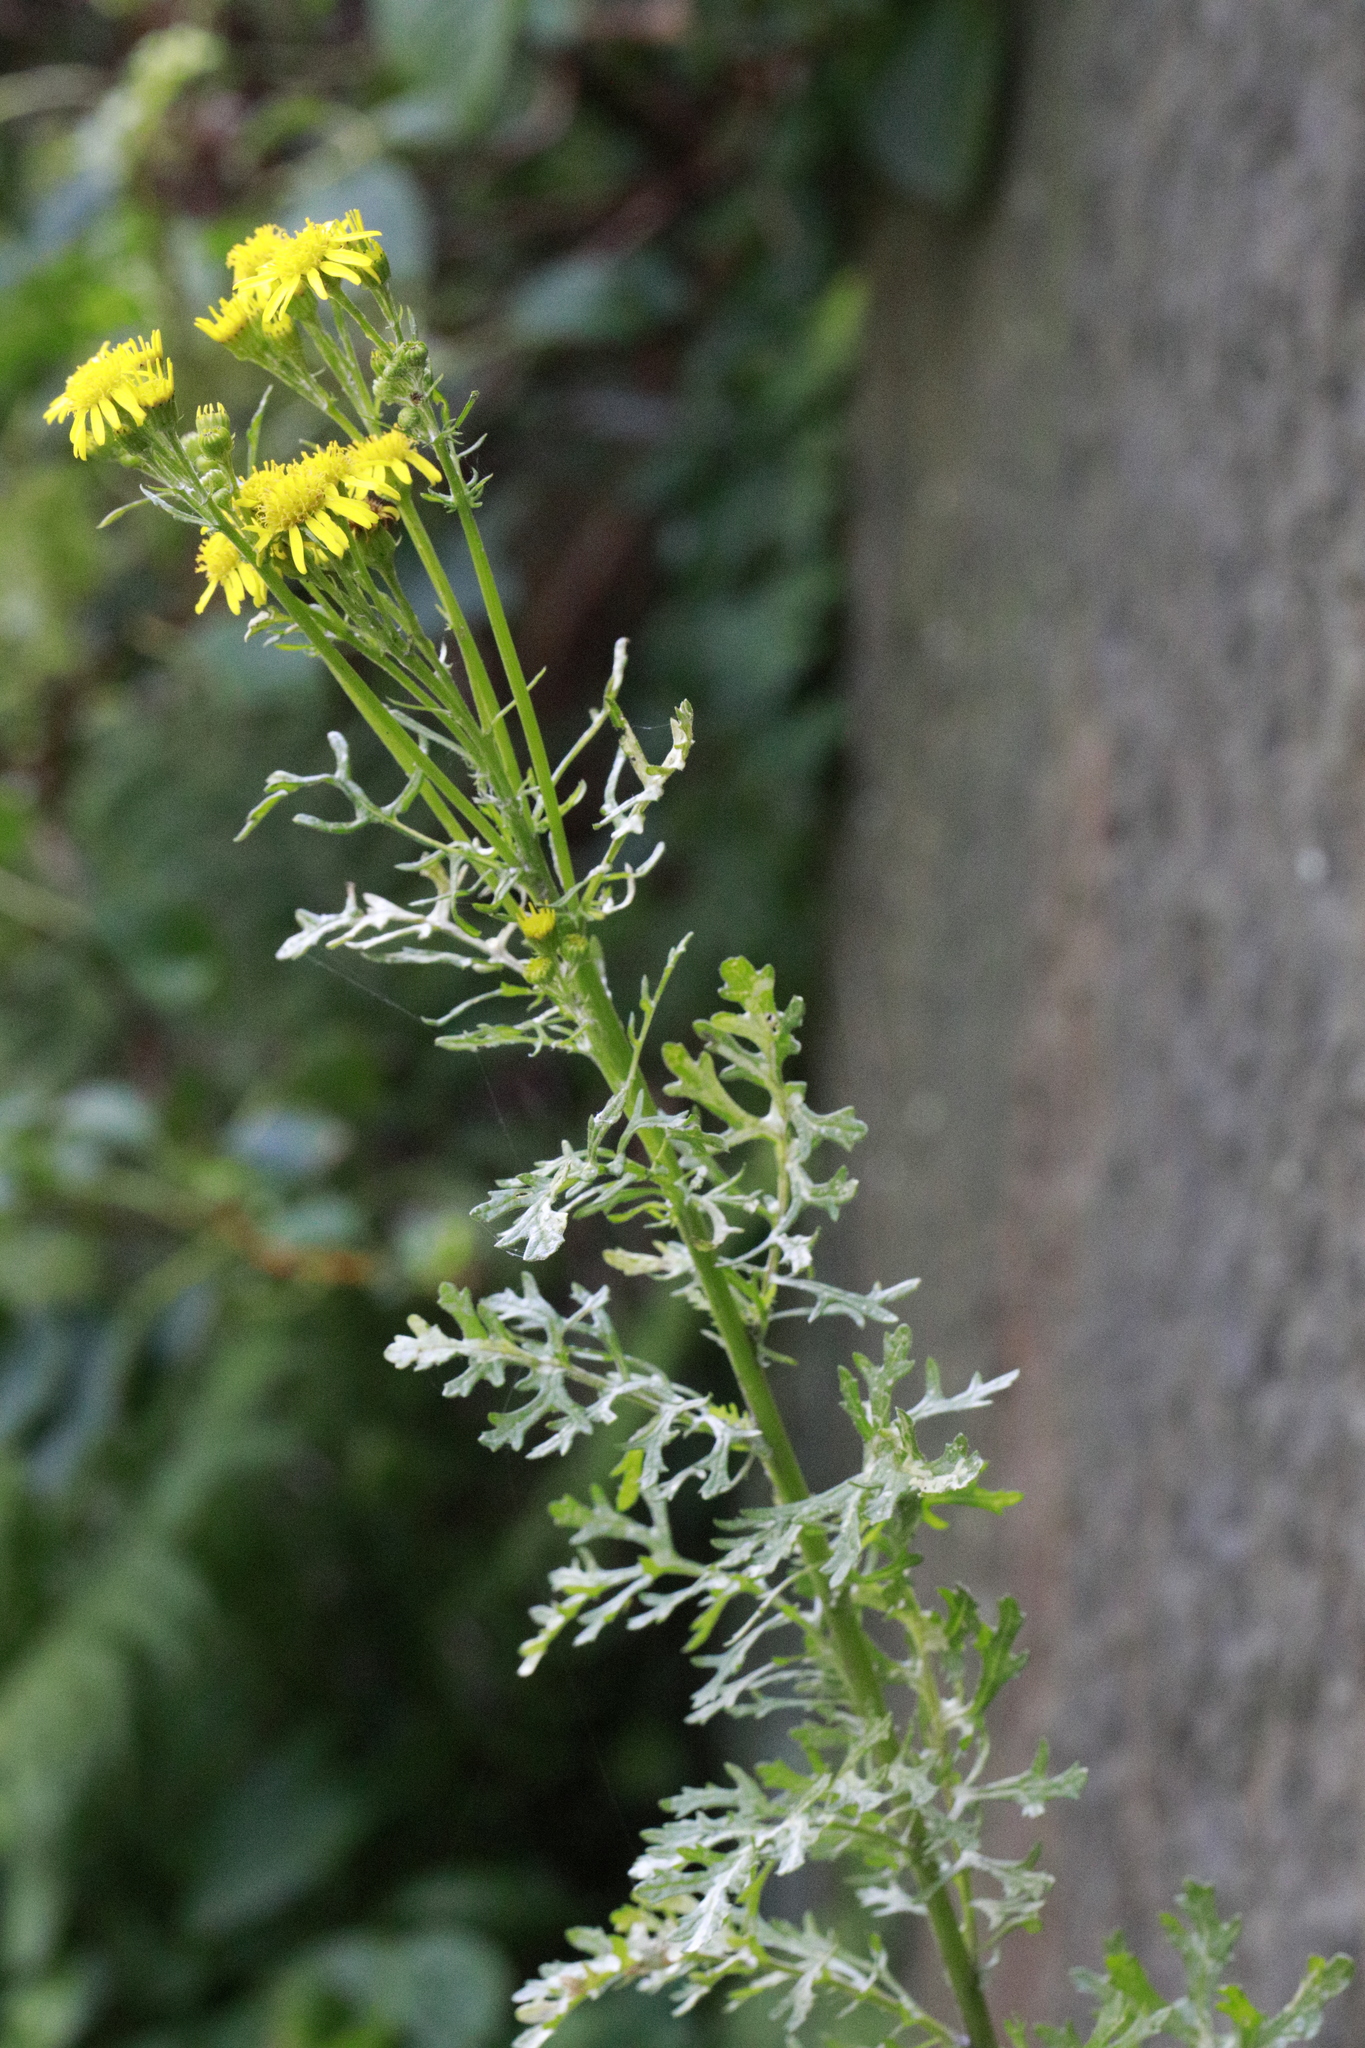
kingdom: Plantae
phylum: Tracheophyta
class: Magnoliopsida
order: Asterales
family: Asteraceae
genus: Jacobaea
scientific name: Jacobaea vulgaris
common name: Stinking willie
